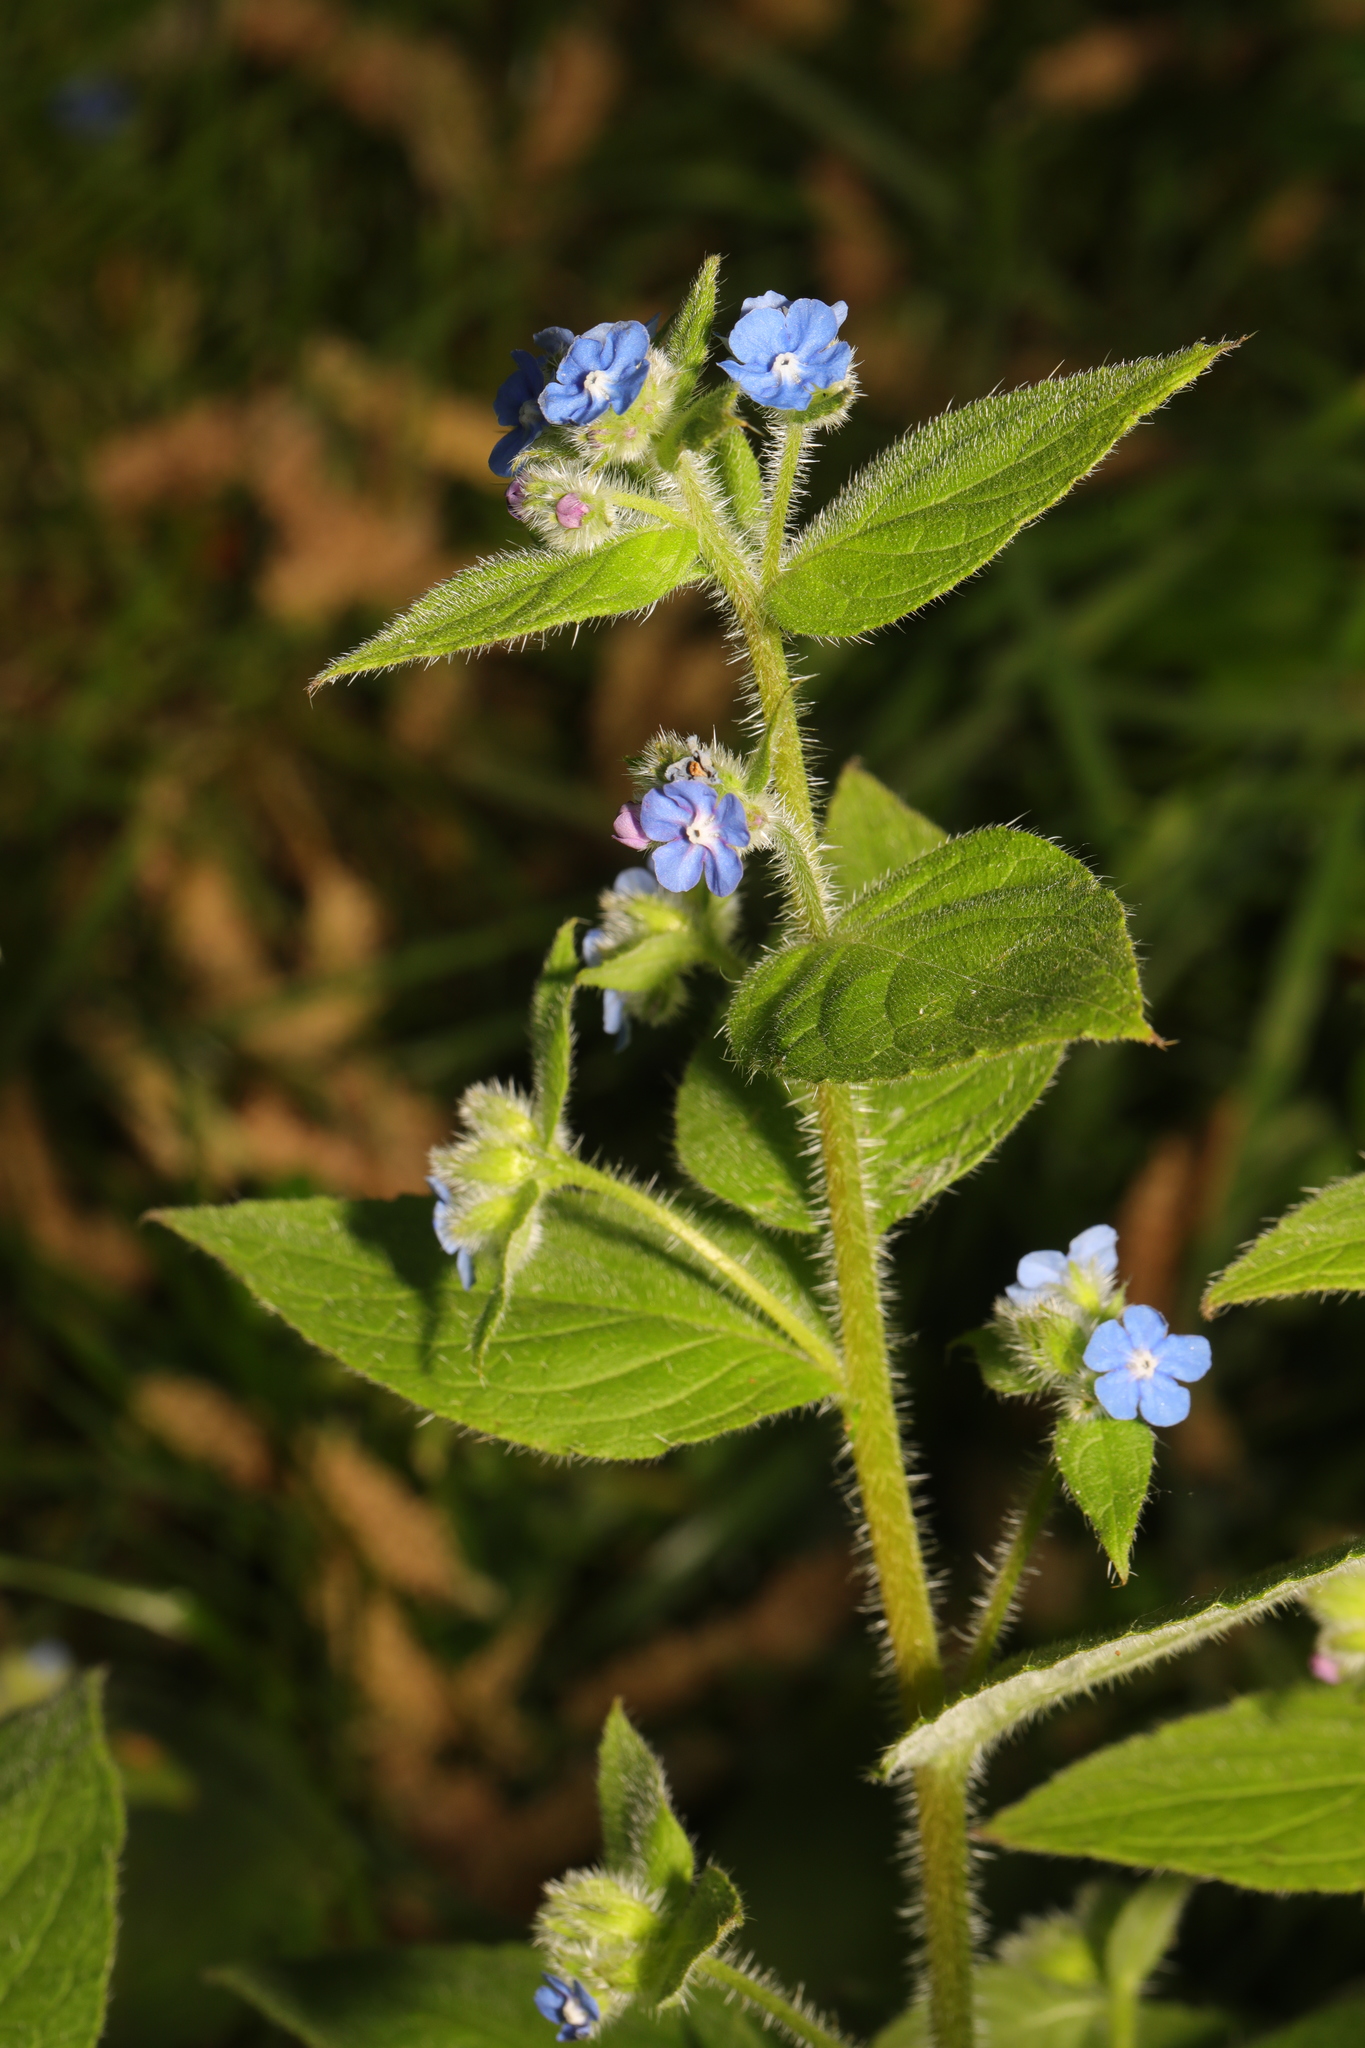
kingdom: Plantae
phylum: Tracheophyta
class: Magnoliopsida
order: Boraginales
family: Boraginaceae
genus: Pentaglottis
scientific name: Pentaglottis sempervirens
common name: Green alkanet
